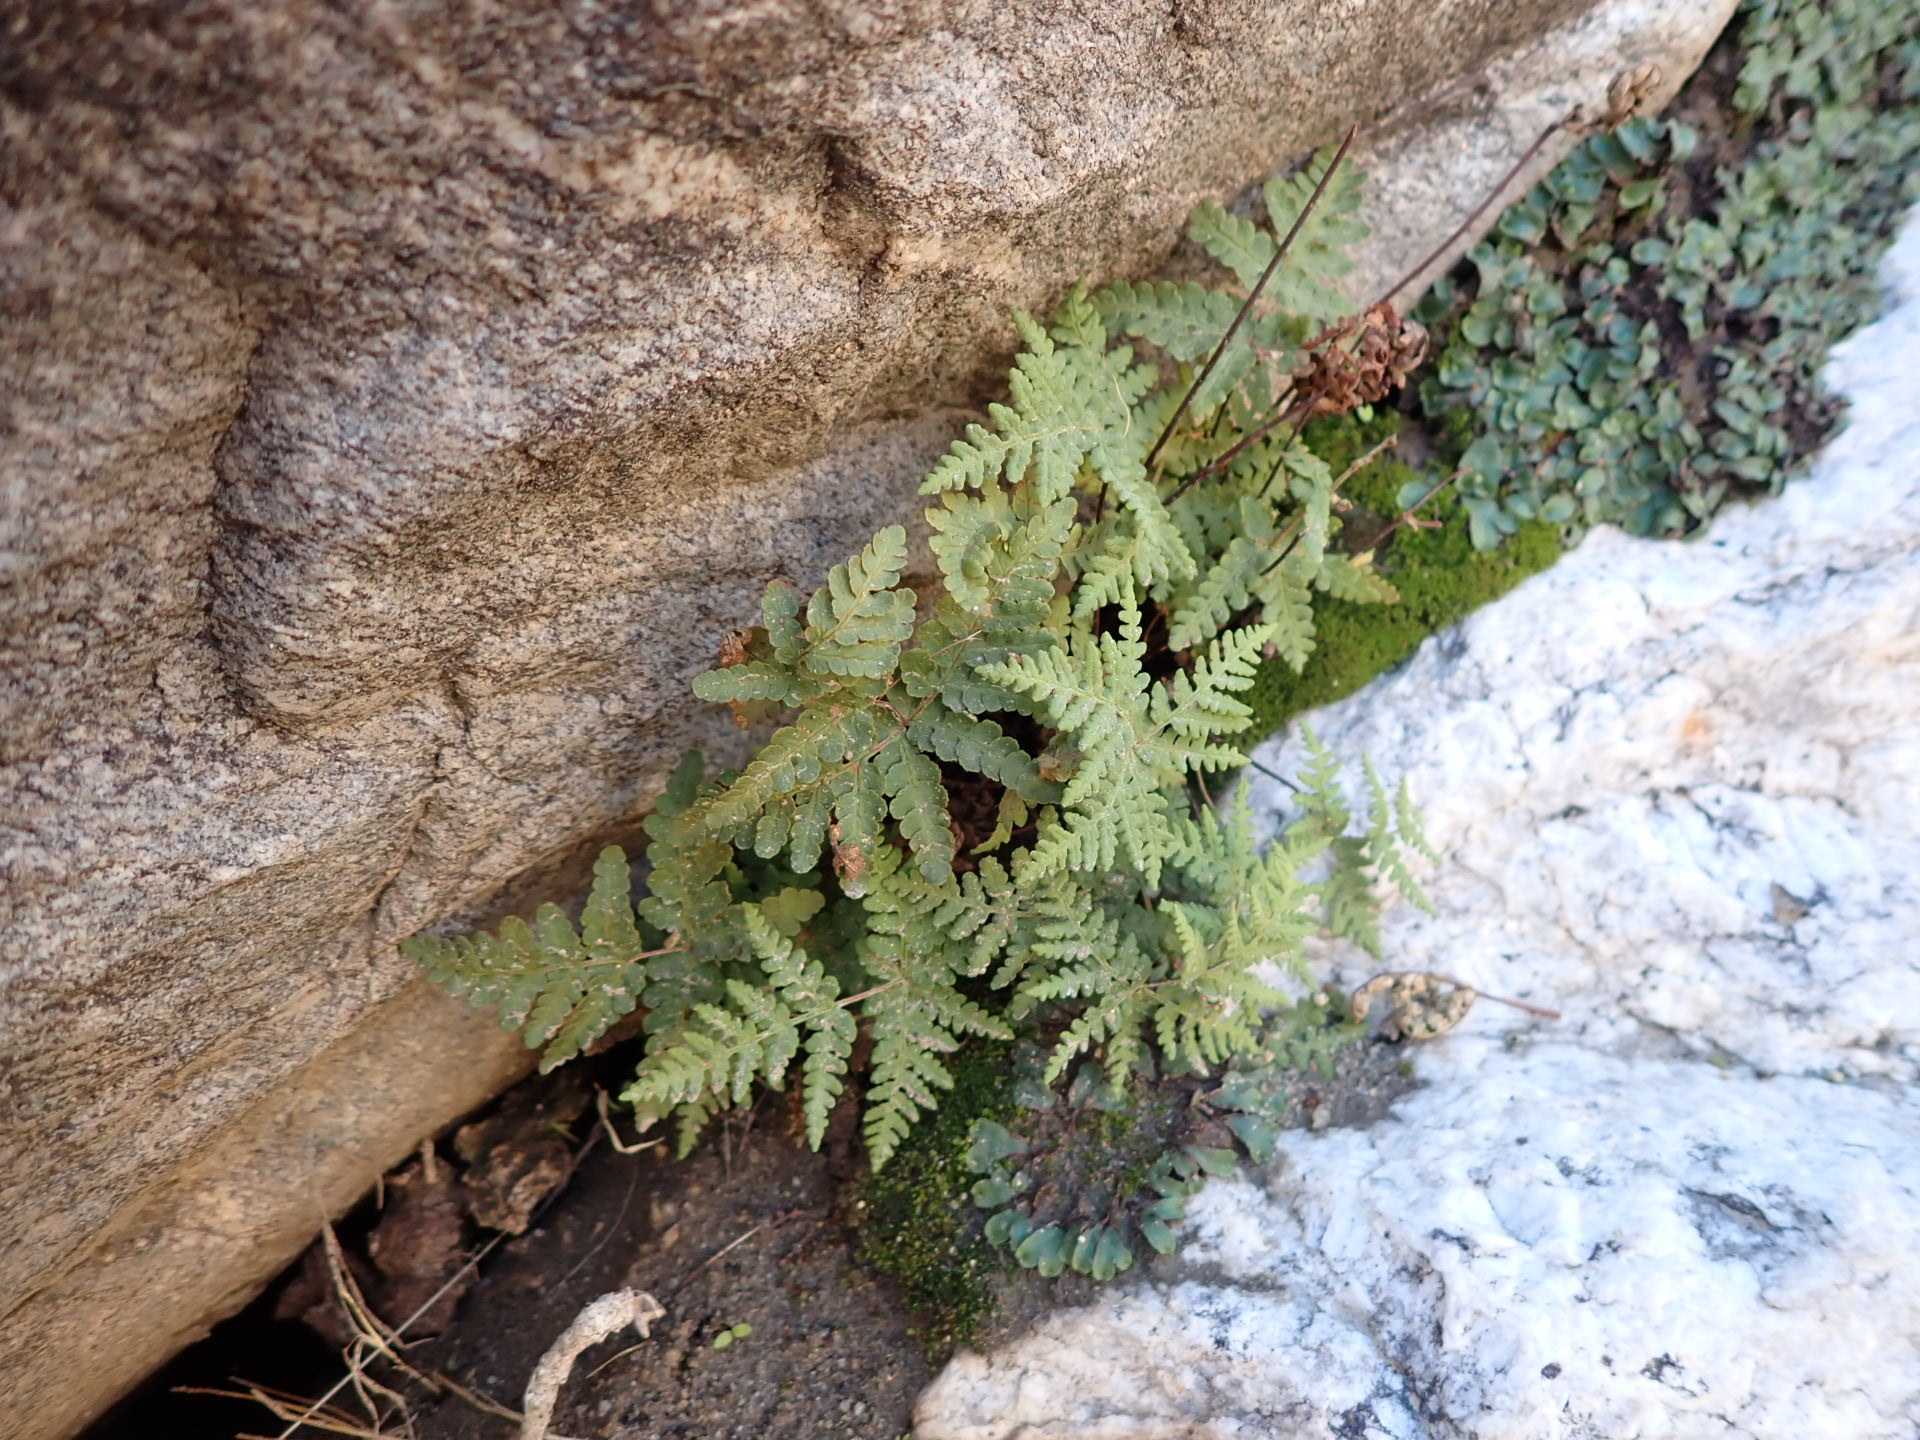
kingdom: Plantae
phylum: Tracheophyta
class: Polypodiopsida
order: Polypodiales
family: Pteridaceae
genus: Pentagramma
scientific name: Pentagramma maxonii
